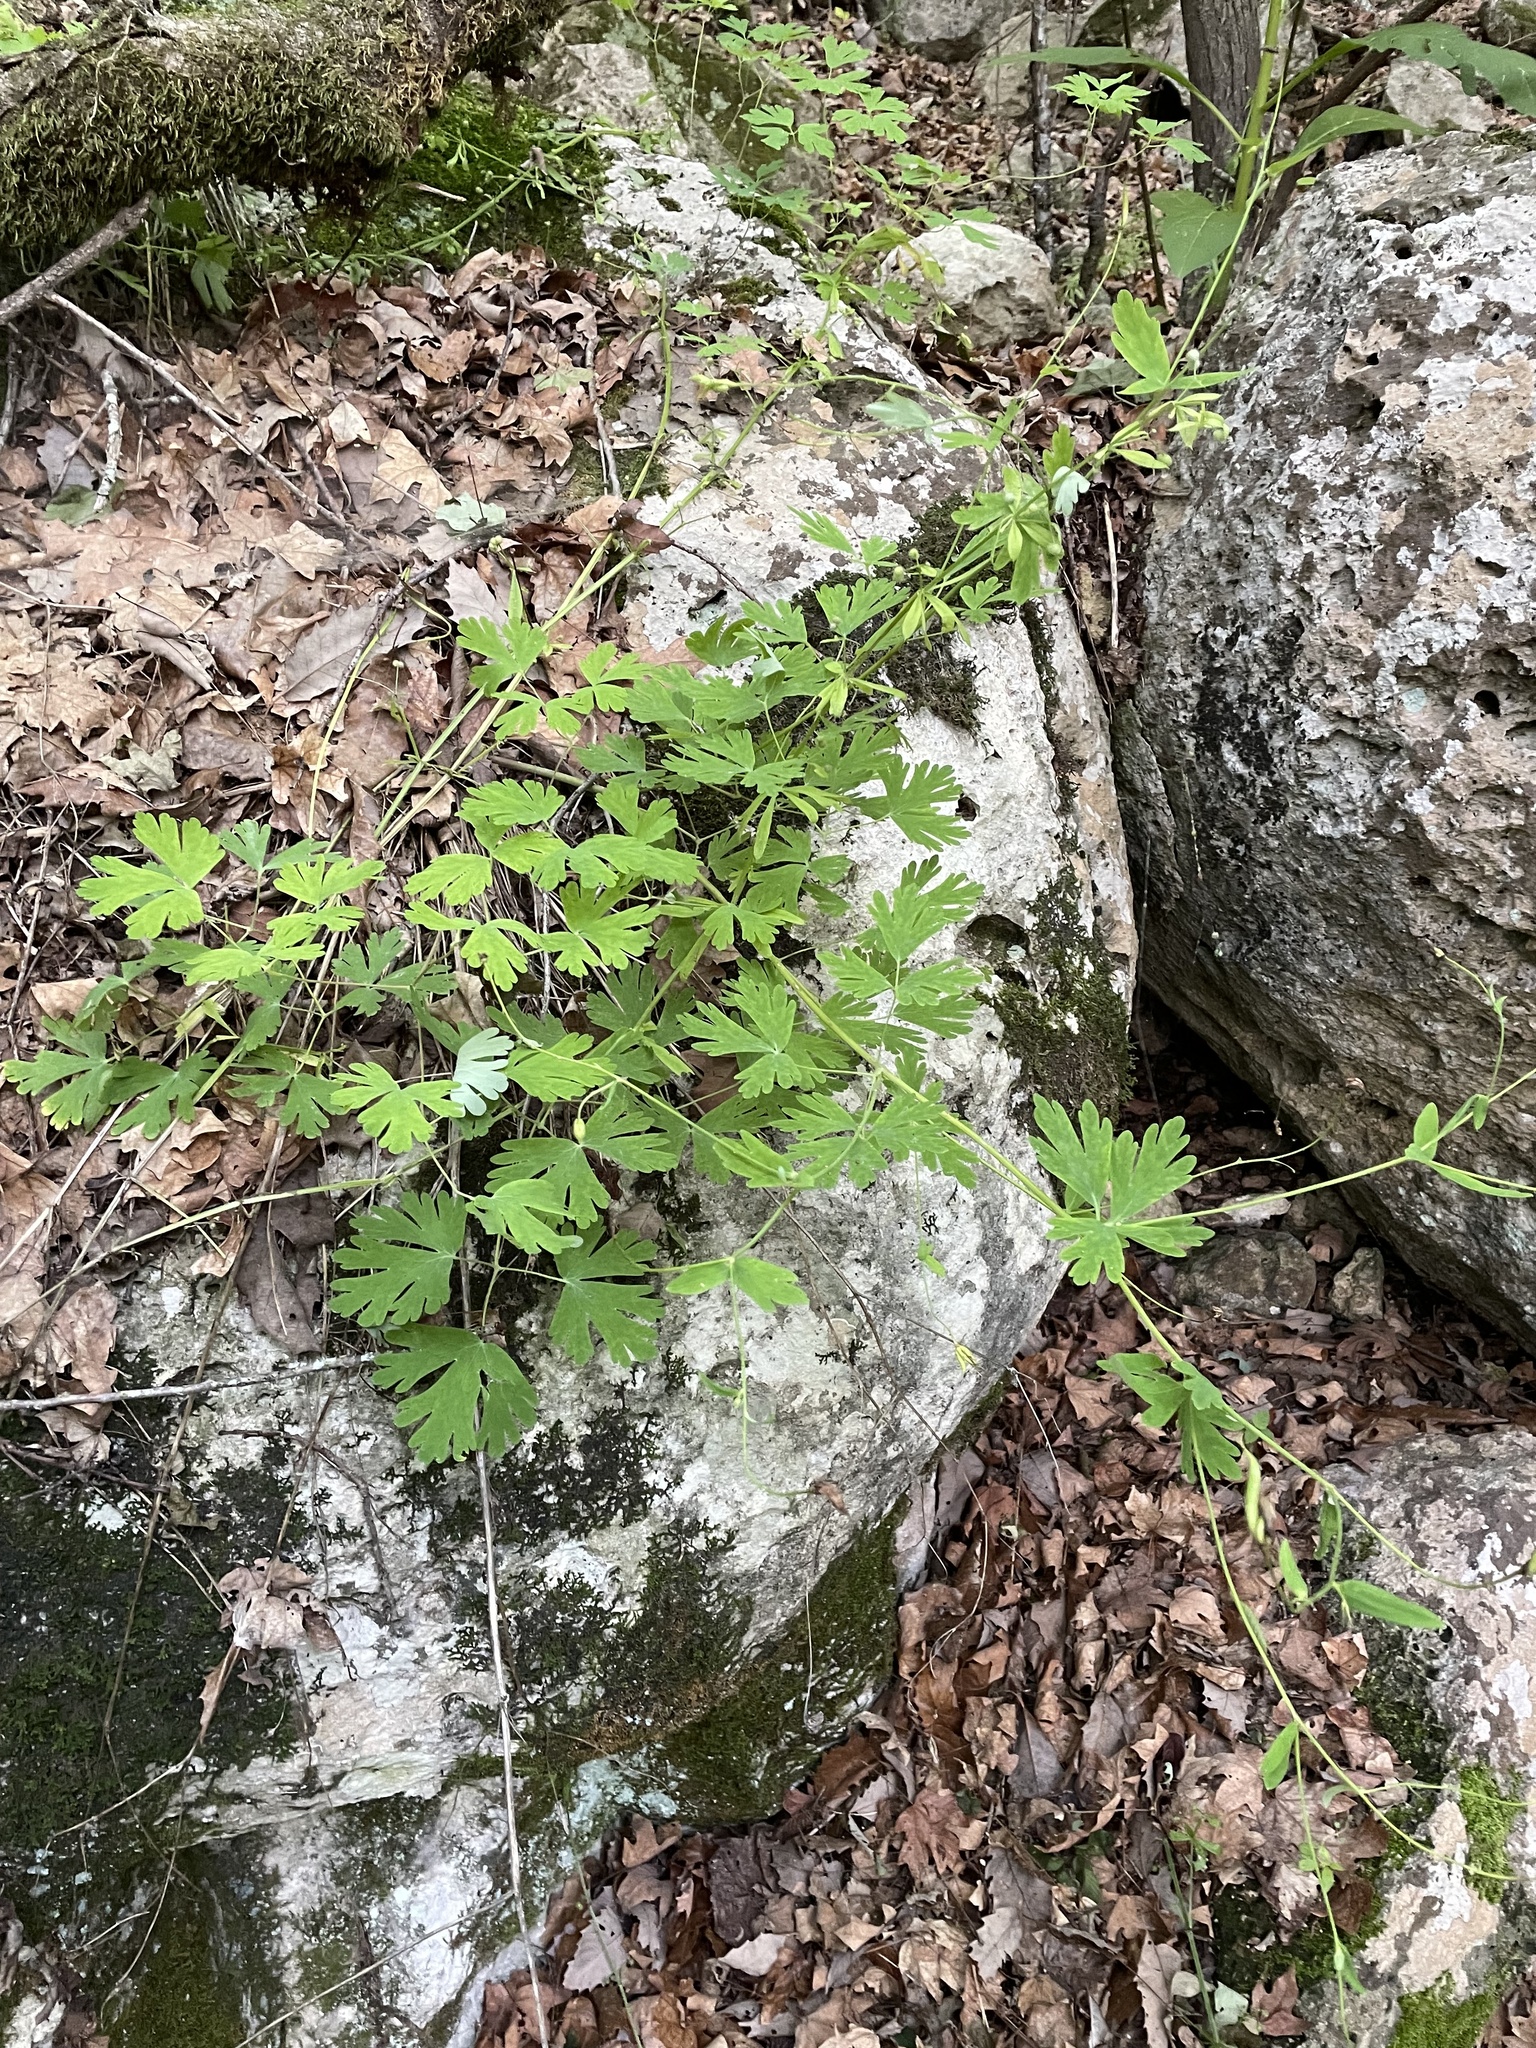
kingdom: Plantae
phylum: Tracheophyta
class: Magnoliopsida
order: Ranunculales
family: Ranunculaceae
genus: Aquilegia
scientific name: Aquilegia canadensis
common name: American columbine
